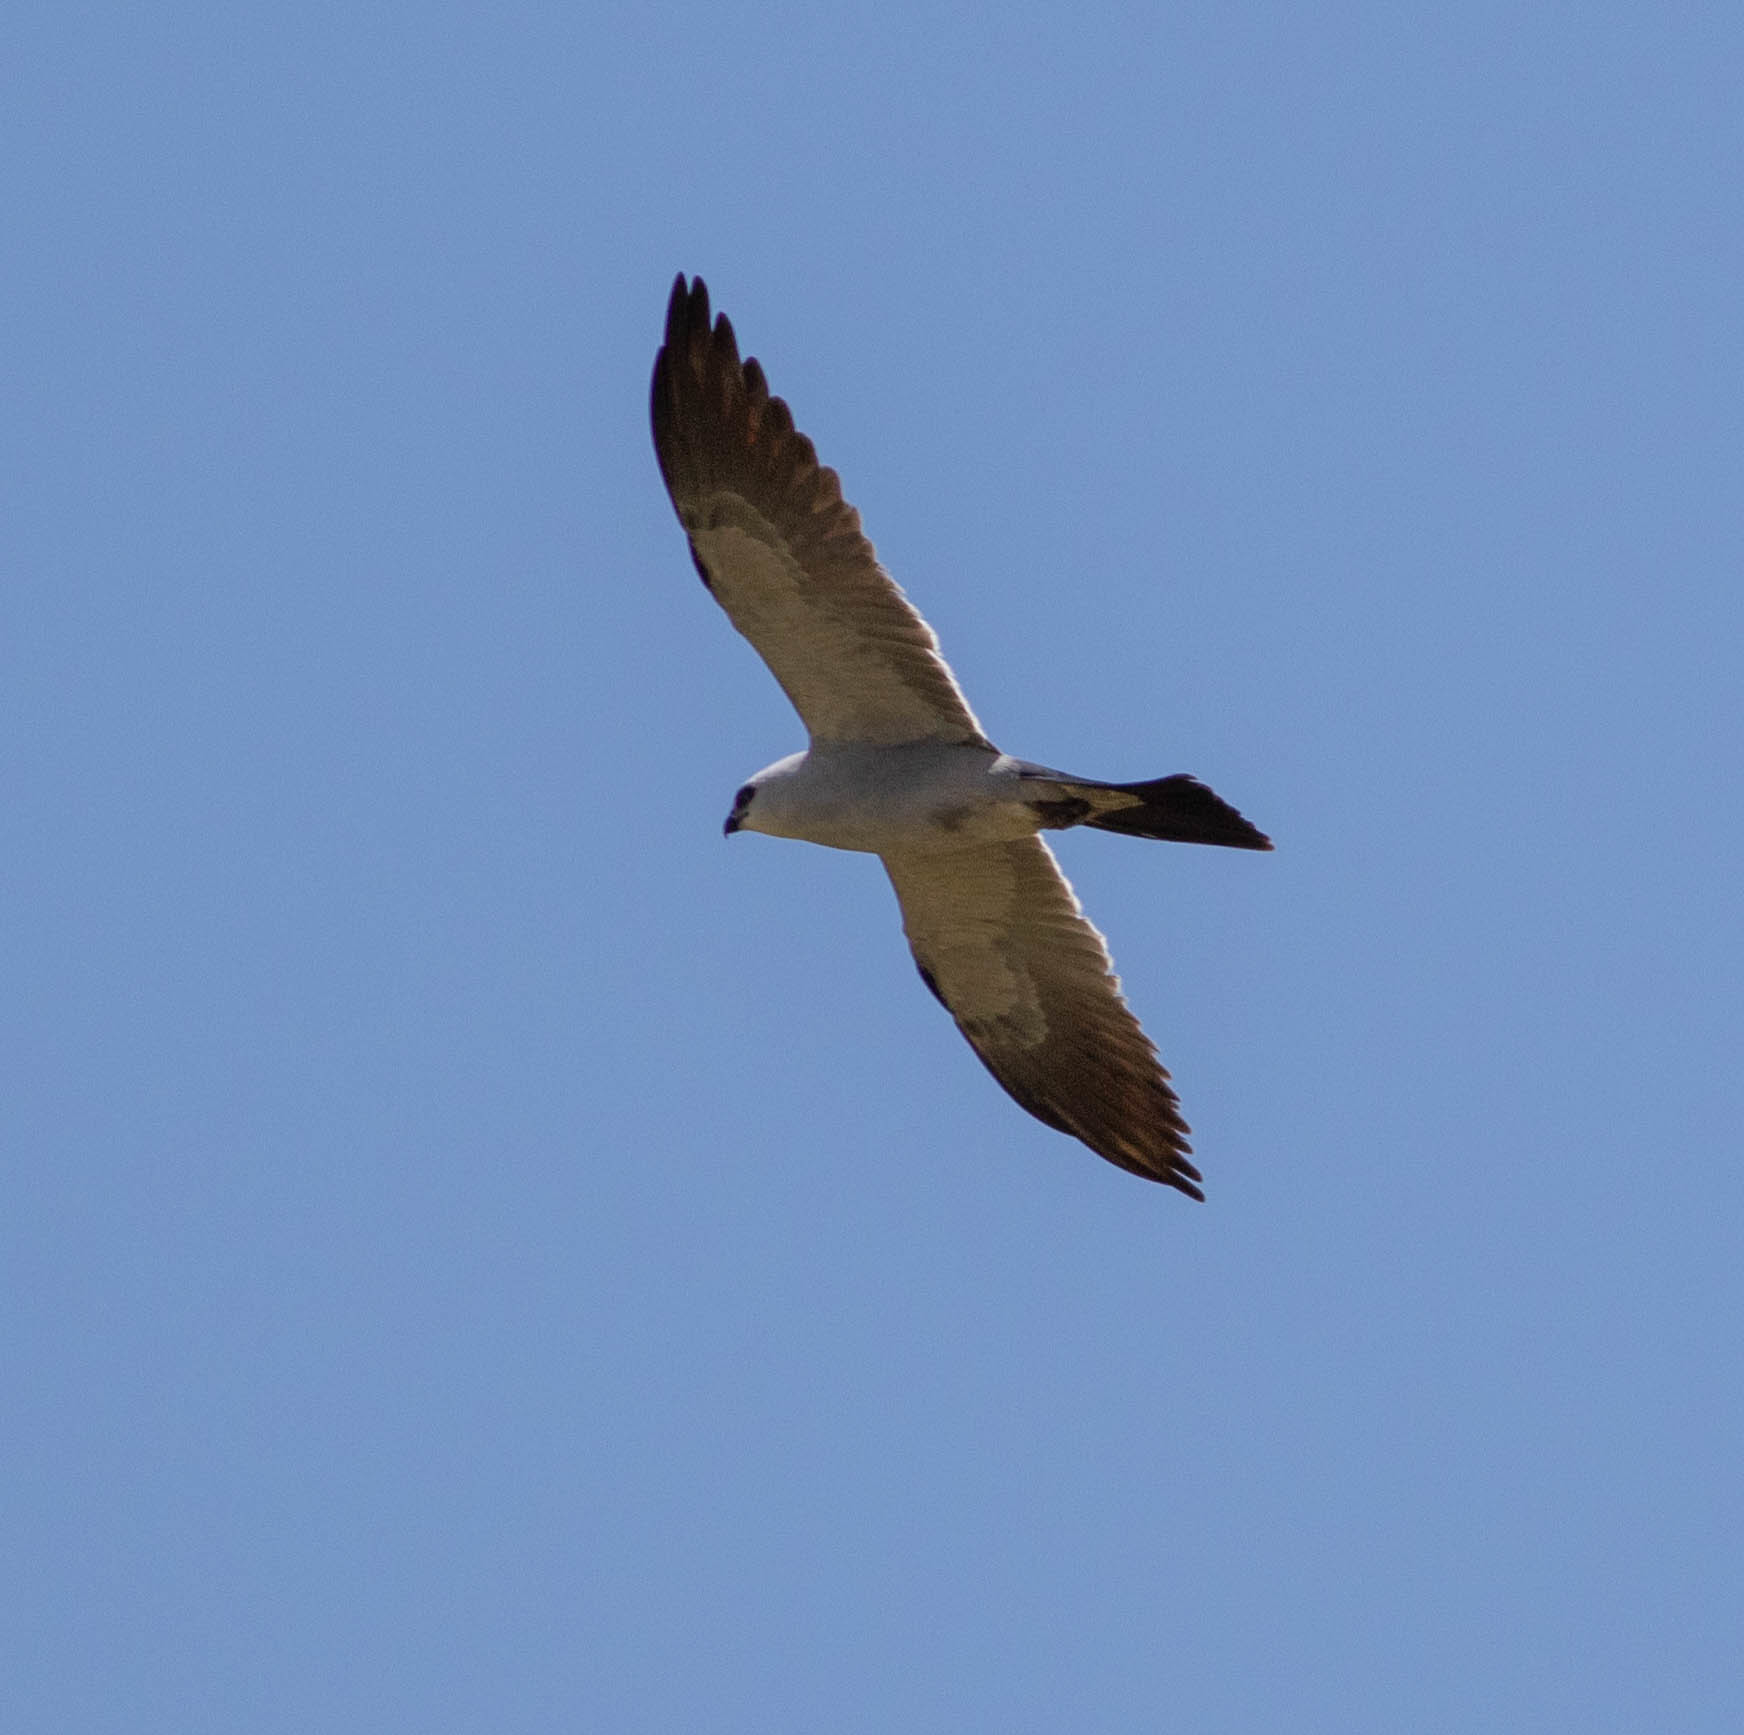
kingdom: Animalia
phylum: Chordata
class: Aves
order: Accipitriformes
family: Accipitridae
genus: Ictinia
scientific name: Ictinia mississippiensis
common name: Mississippi kite
